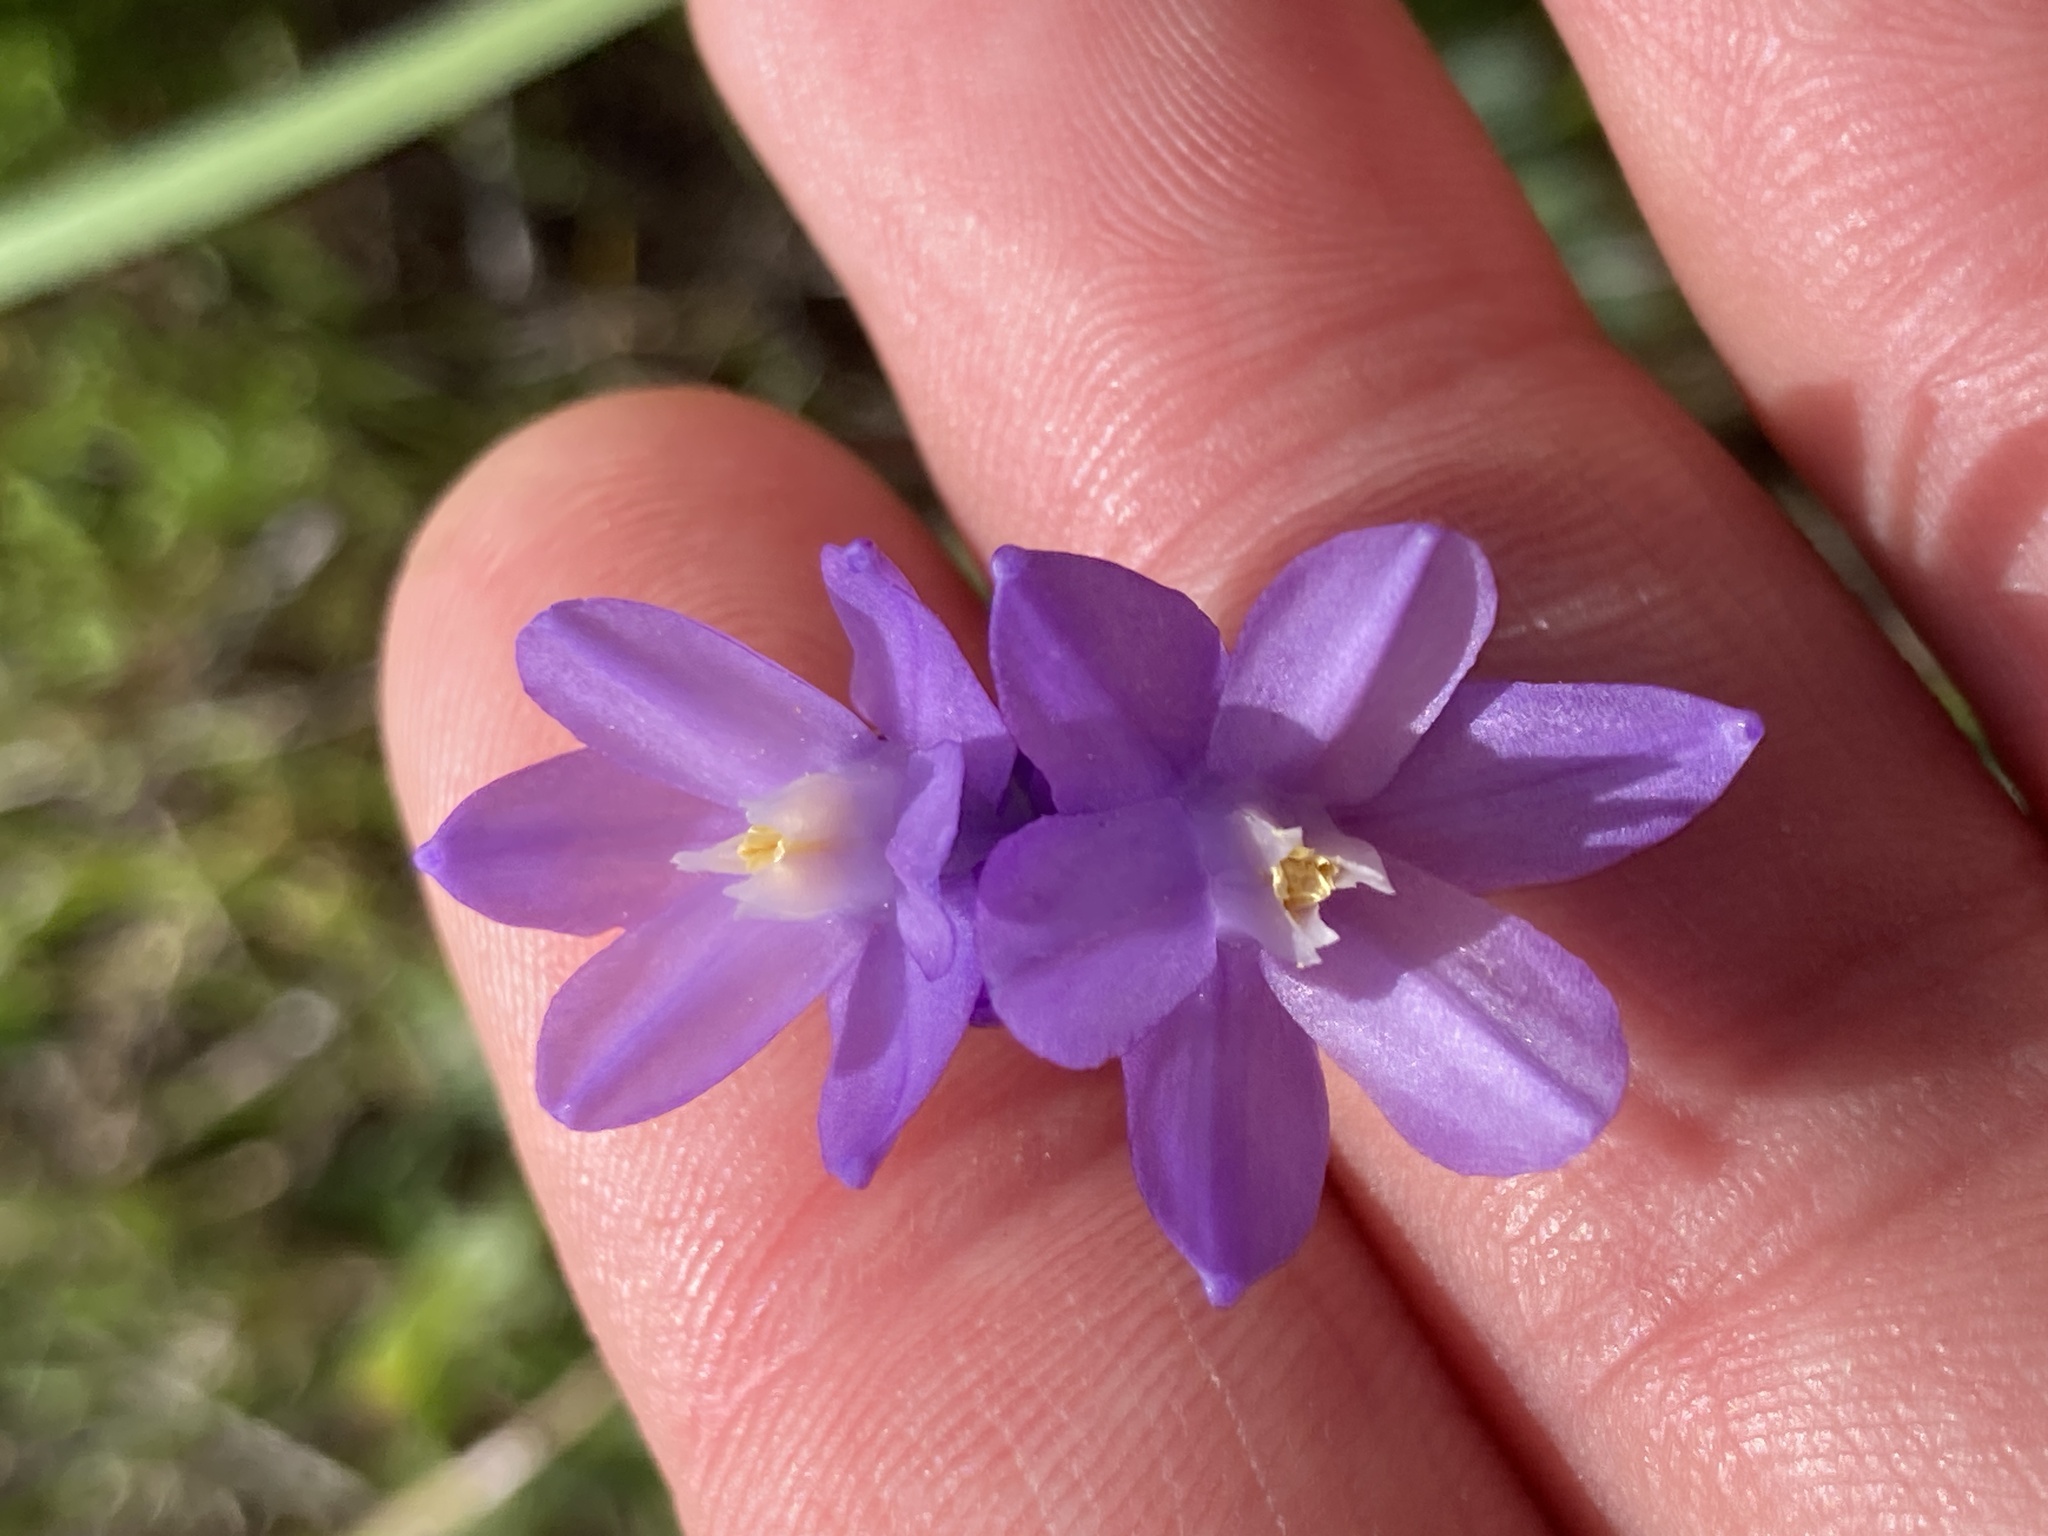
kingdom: Plantae
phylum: Tracheophyta
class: Liliopsida
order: Asparagales
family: Asparagaceae
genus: Dipterostemon
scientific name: Dipterostemon capitatus
